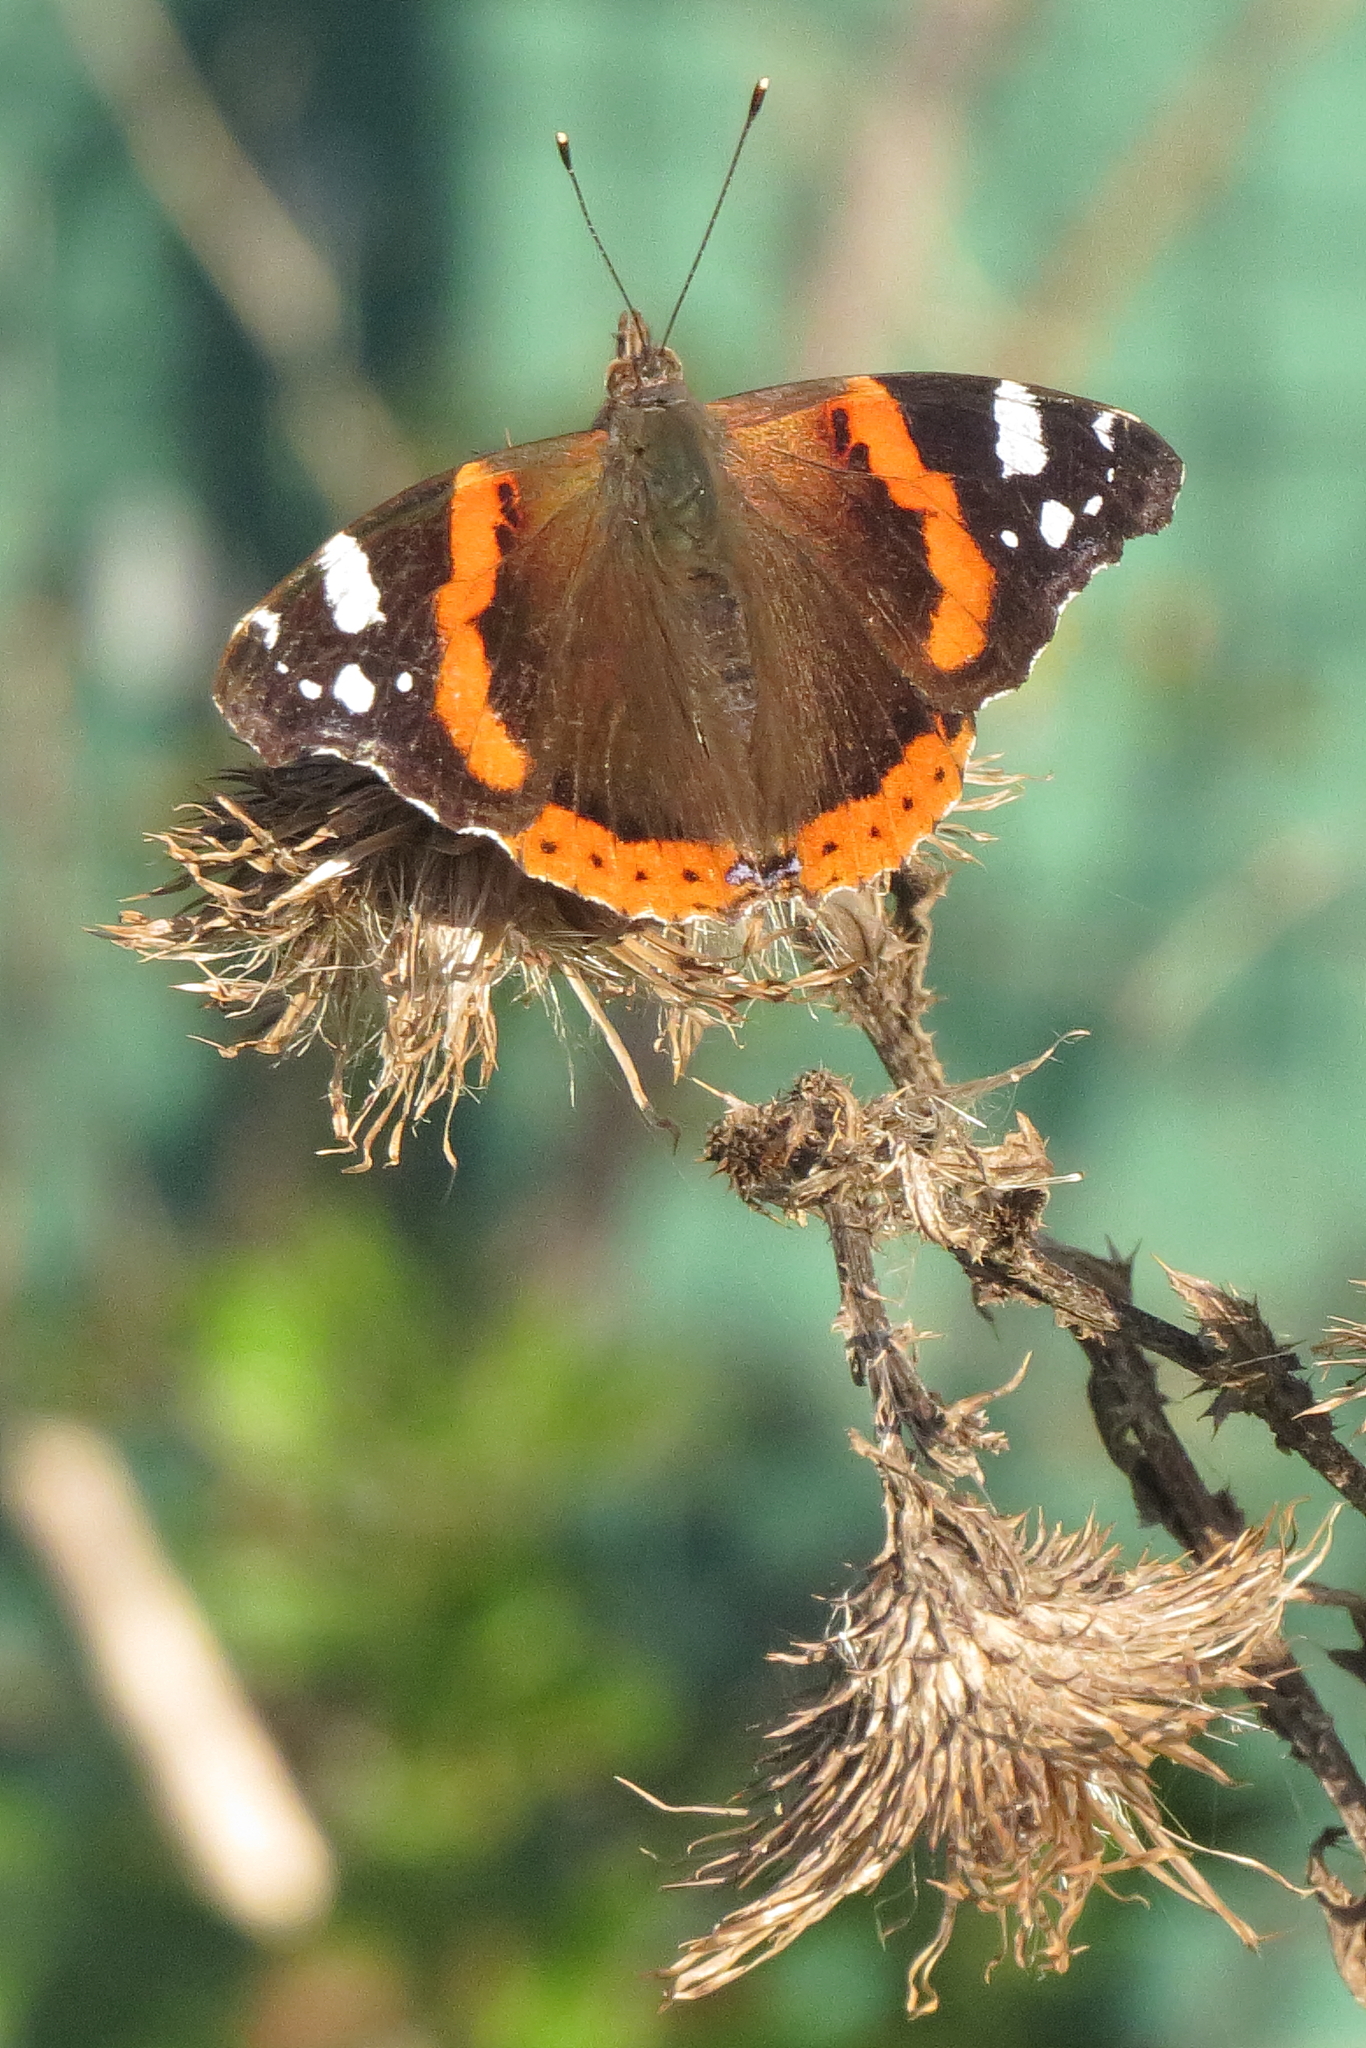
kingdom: Animalia
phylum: Arthropoda
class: Insecta
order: Lepidoptera
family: Nymphalidae
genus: Vanessa
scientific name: Vanessa atalanta
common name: Red admiral
